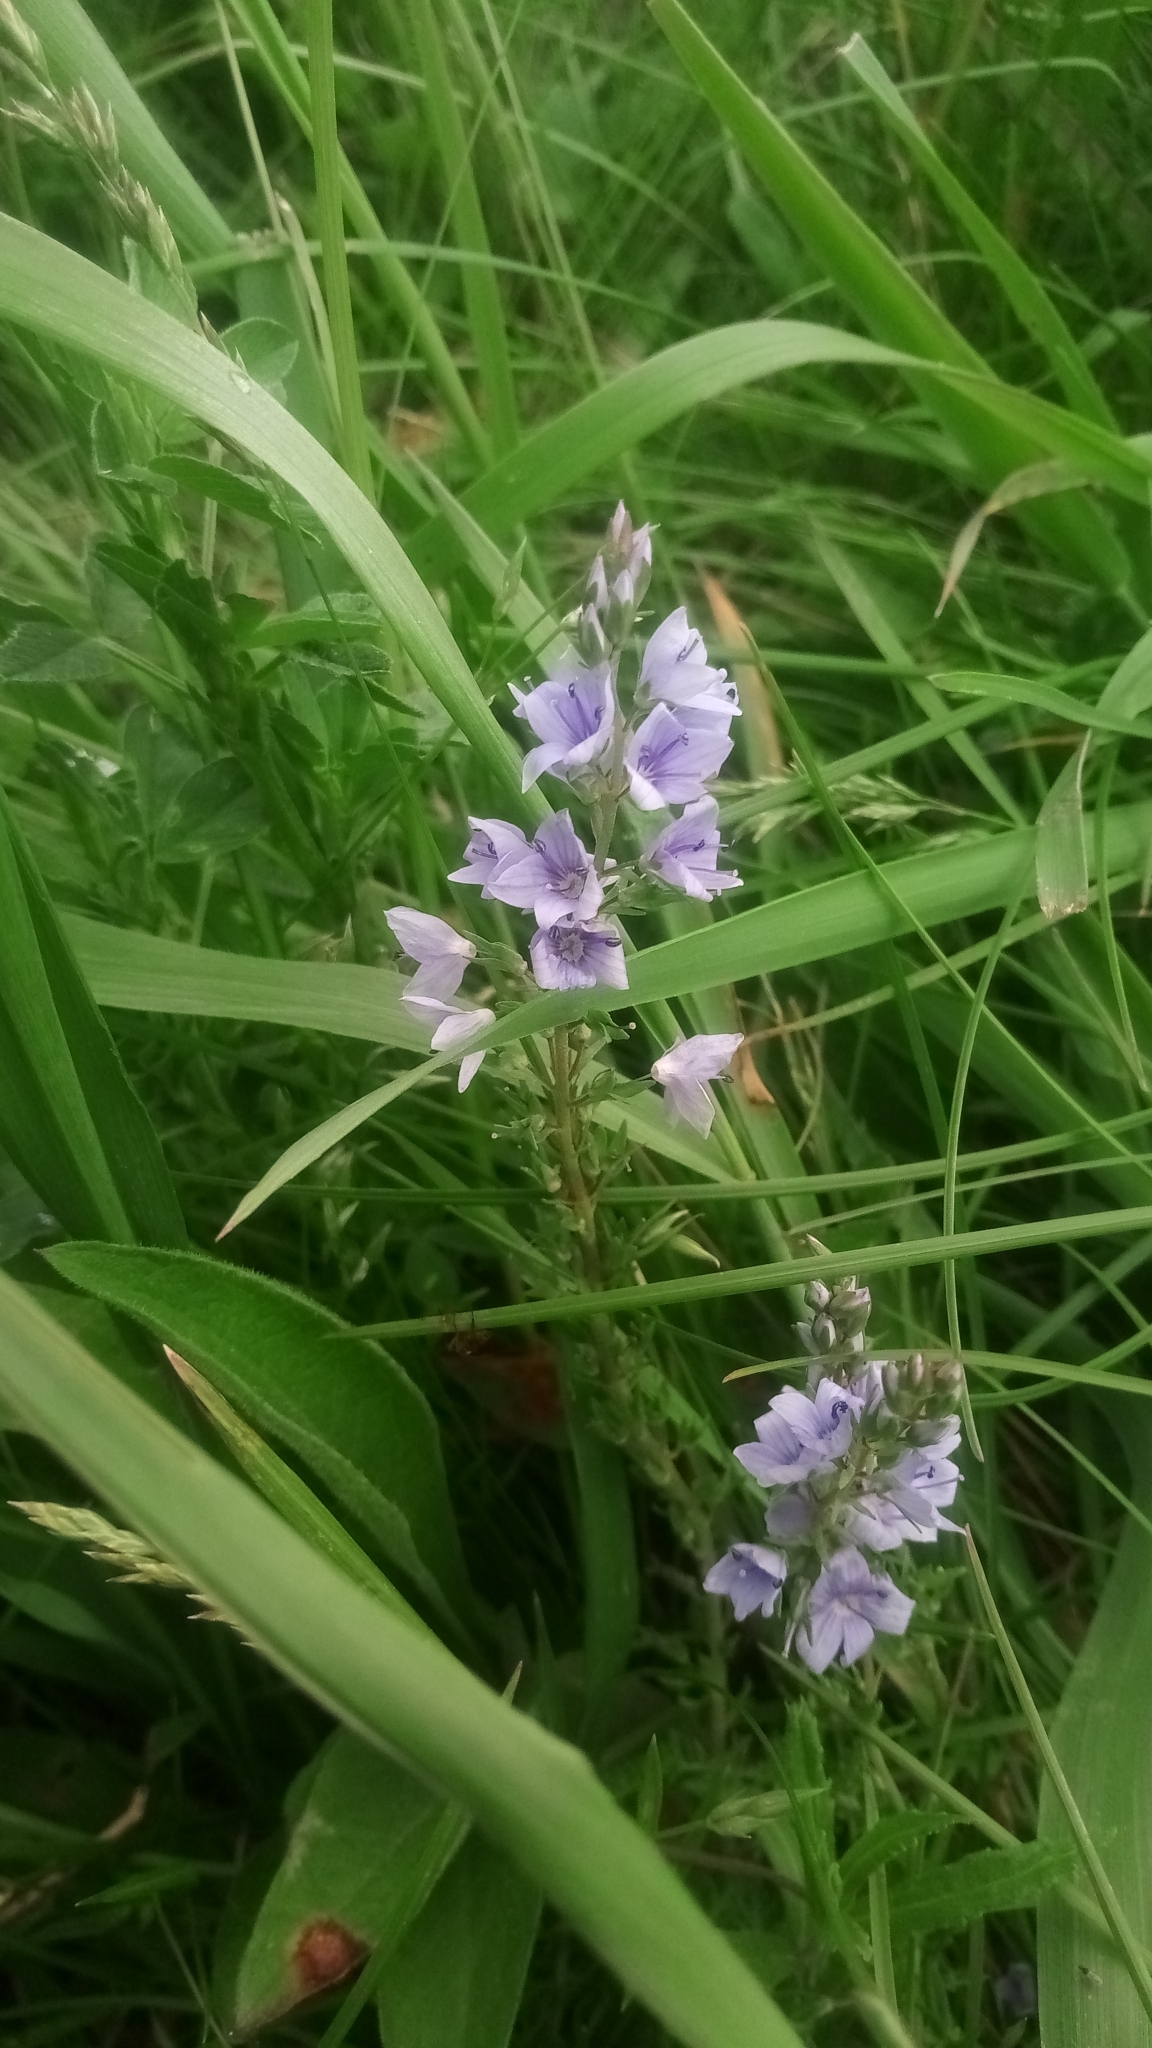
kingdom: Plantae
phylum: Tracheophyta
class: Magnoliopsida
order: Lamiales
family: Plantaginaceae
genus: Veronica
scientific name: Veronica prostrata
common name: Prostrate speedwell
